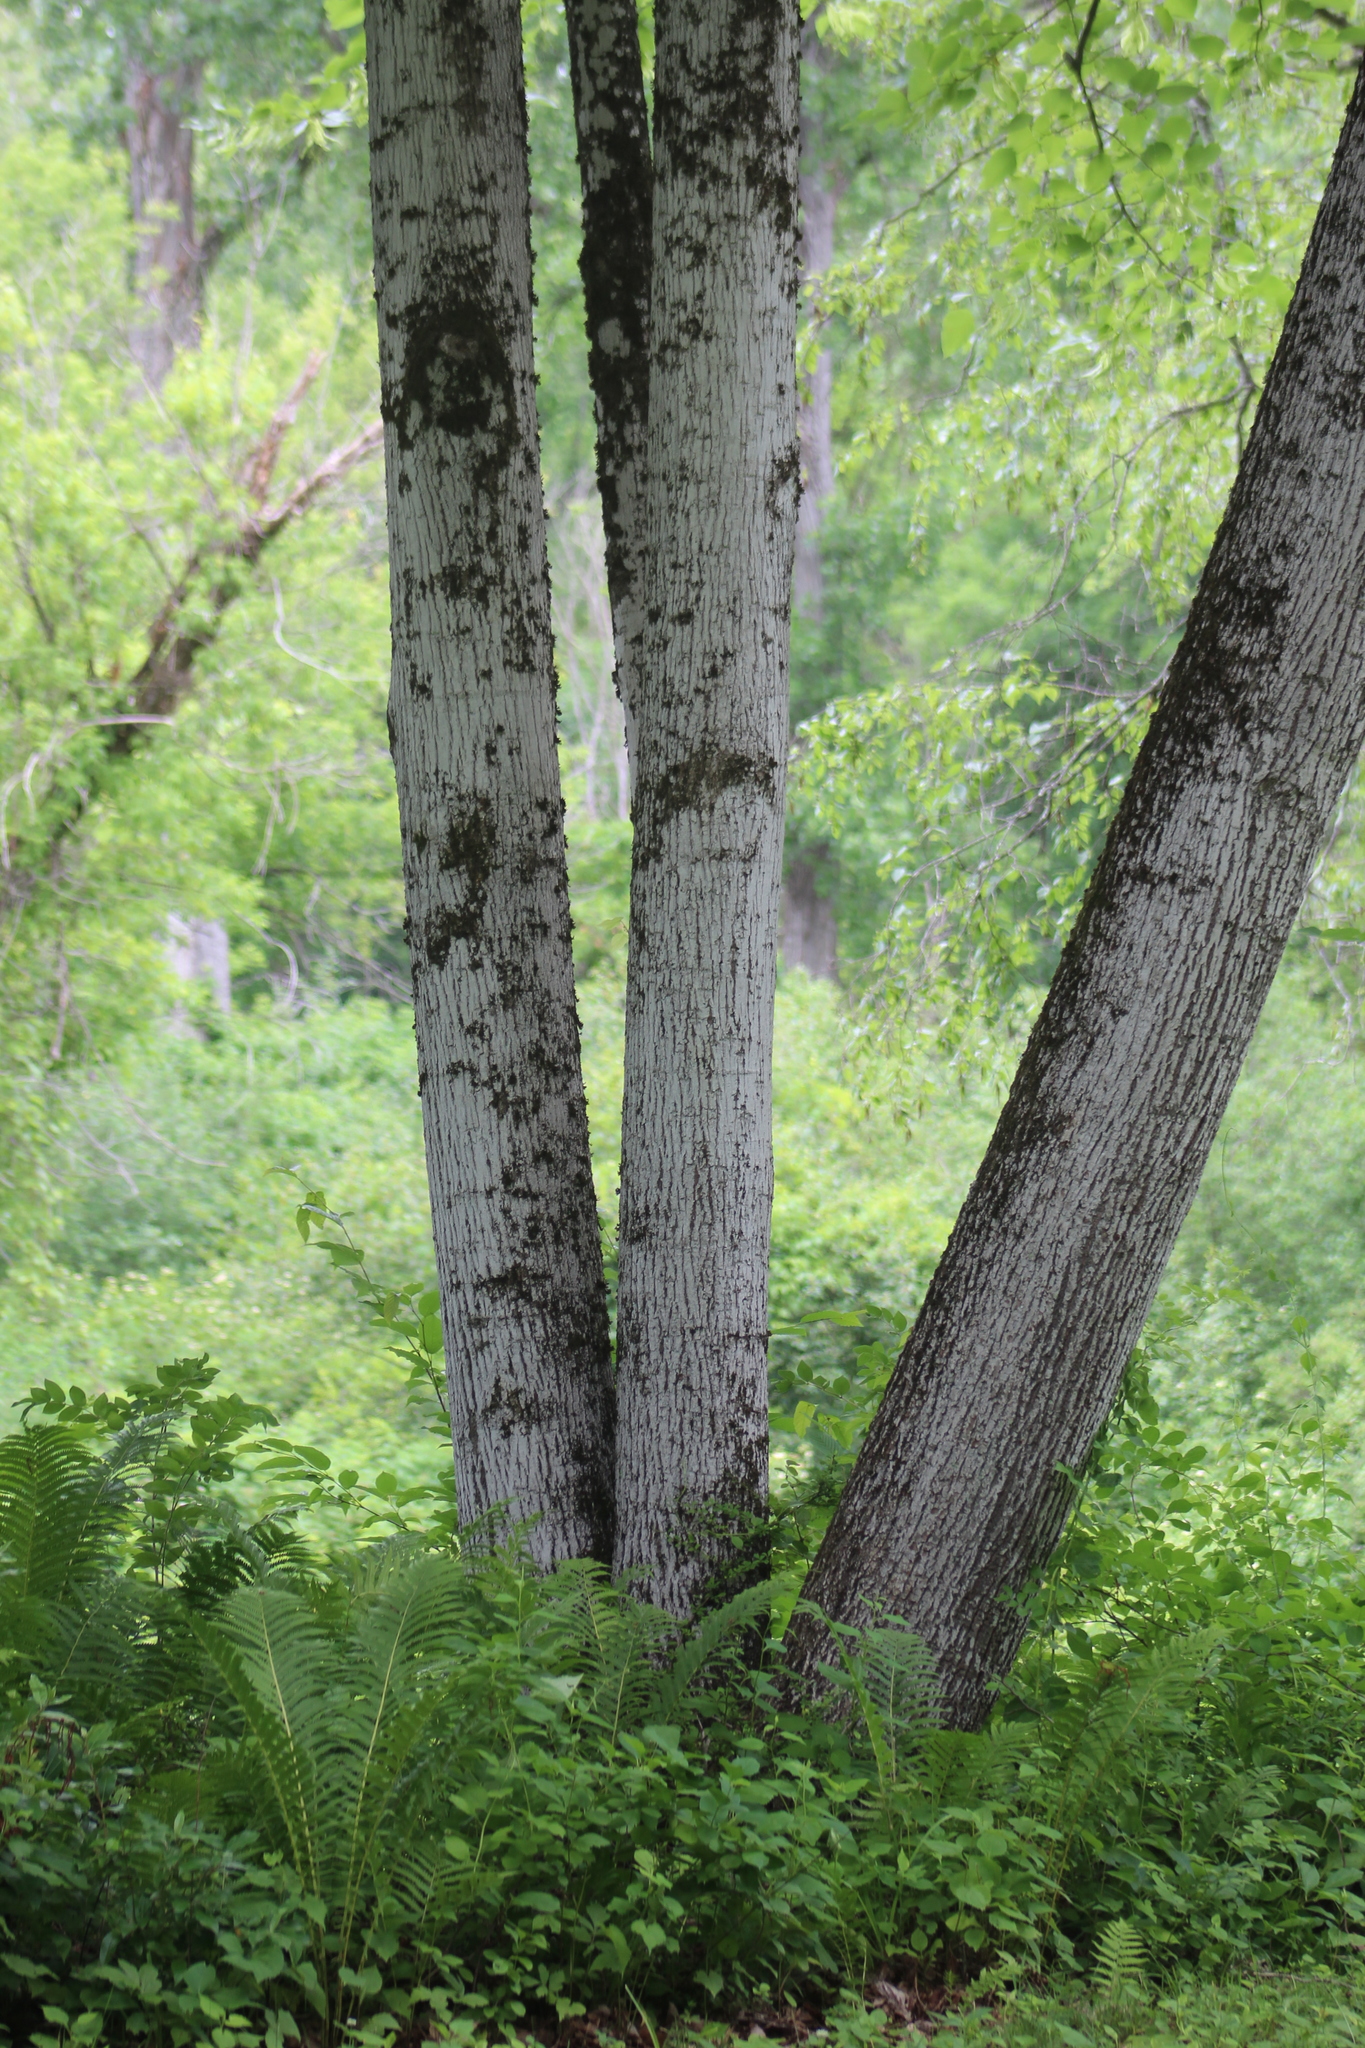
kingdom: Plantae
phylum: Tracheophyta
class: Magnoliopsida
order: Malvales
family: Malvaceae
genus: Tilia
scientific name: Tilia americana
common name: Basswood
